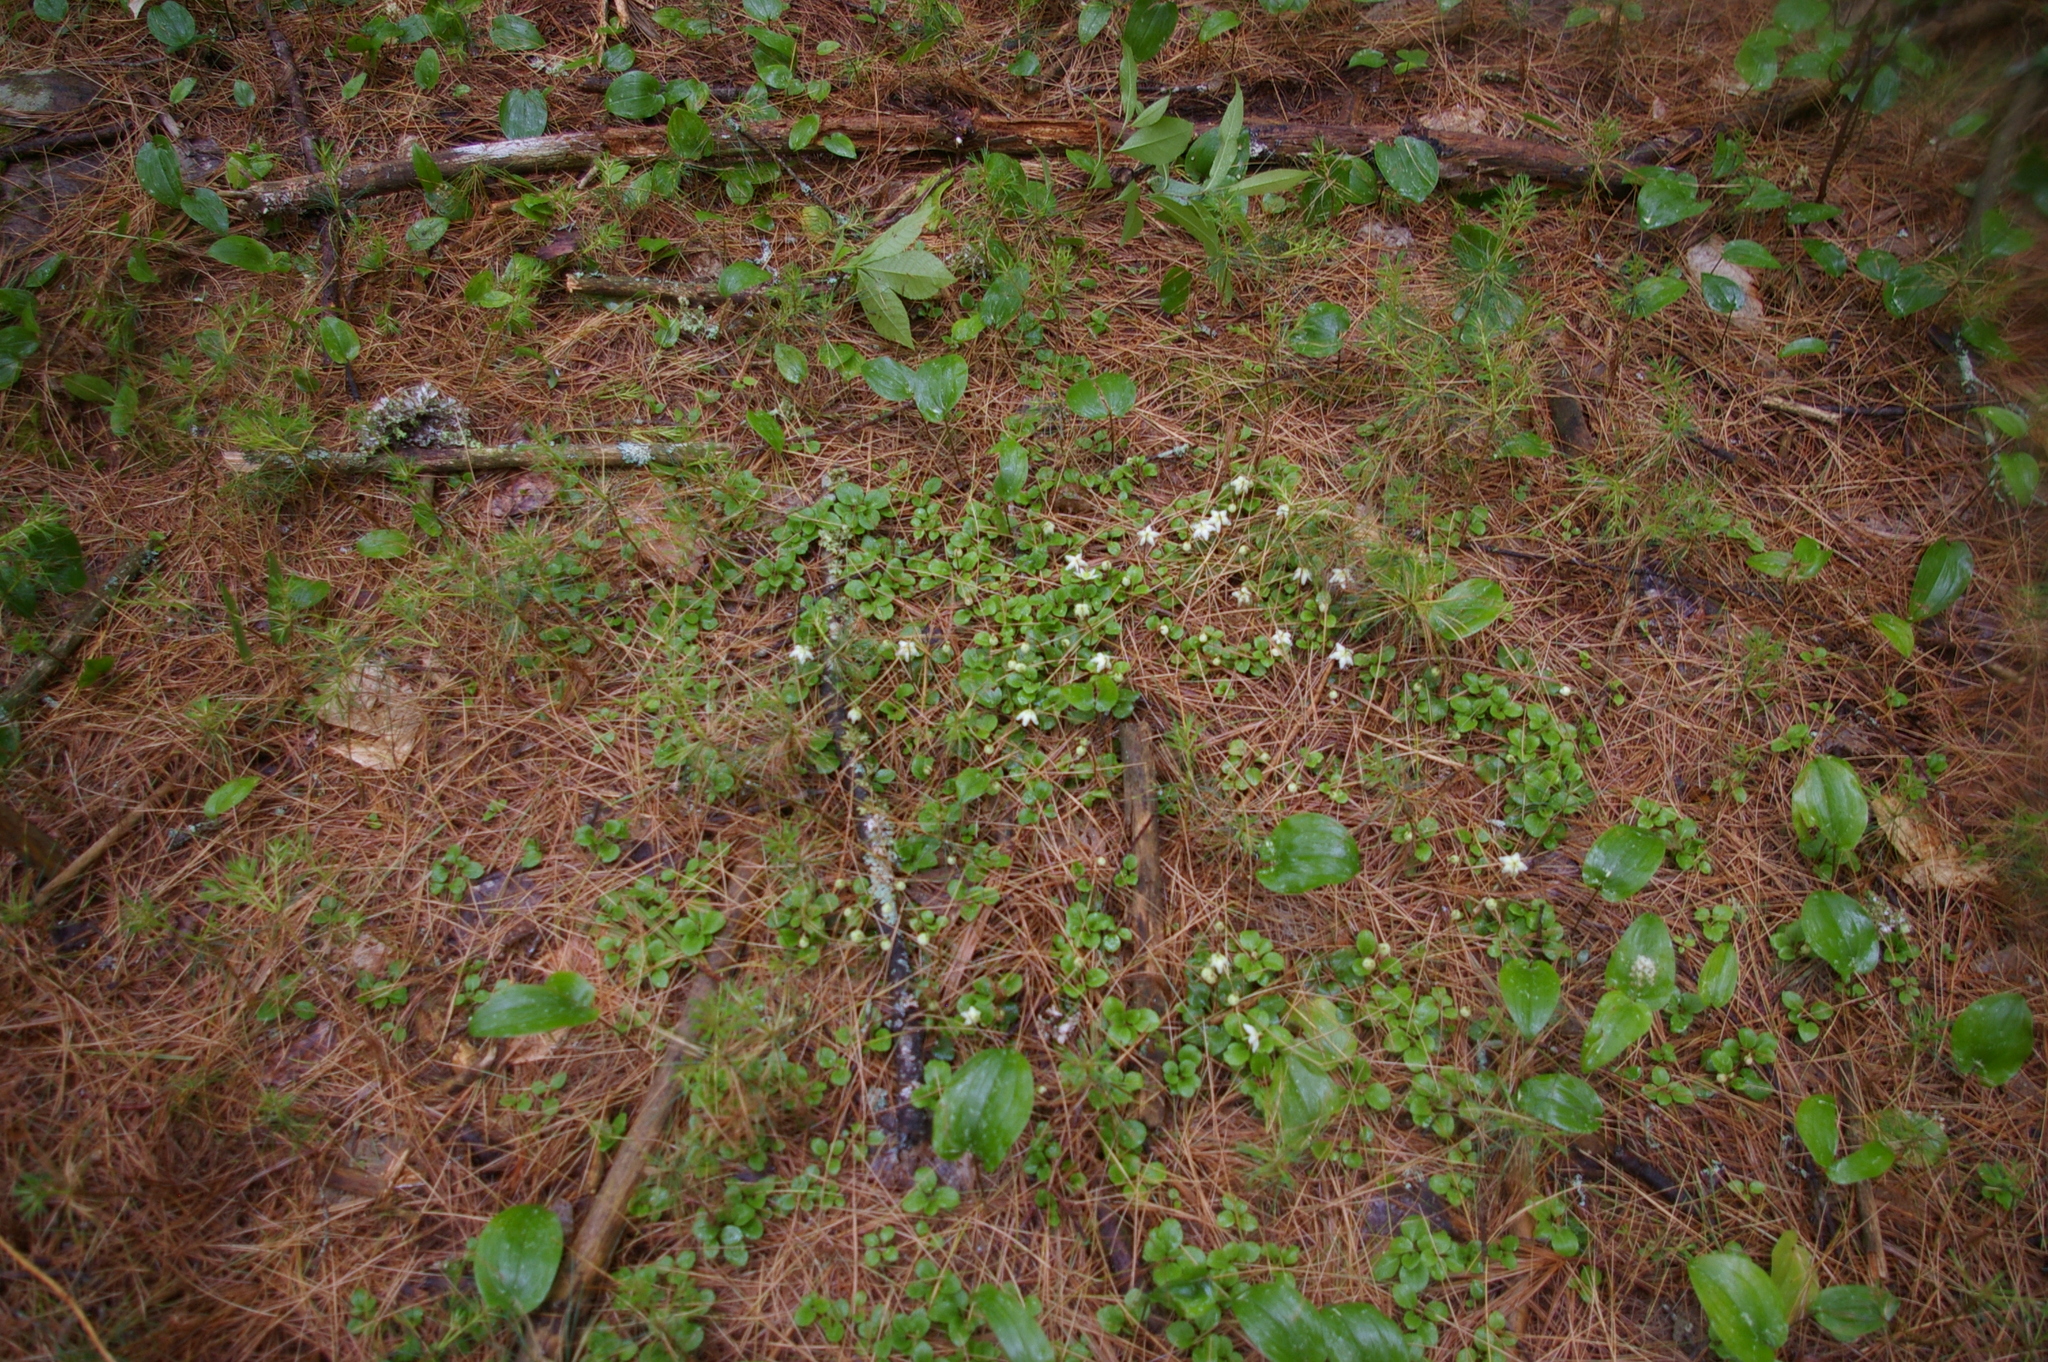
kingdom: Plantae
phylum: Tracheophyta
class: Magnoliopsida
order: Ericales
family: Ericaceae
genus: Moneses
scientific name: Moneses uniflora
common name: One-flowered wintergreen
